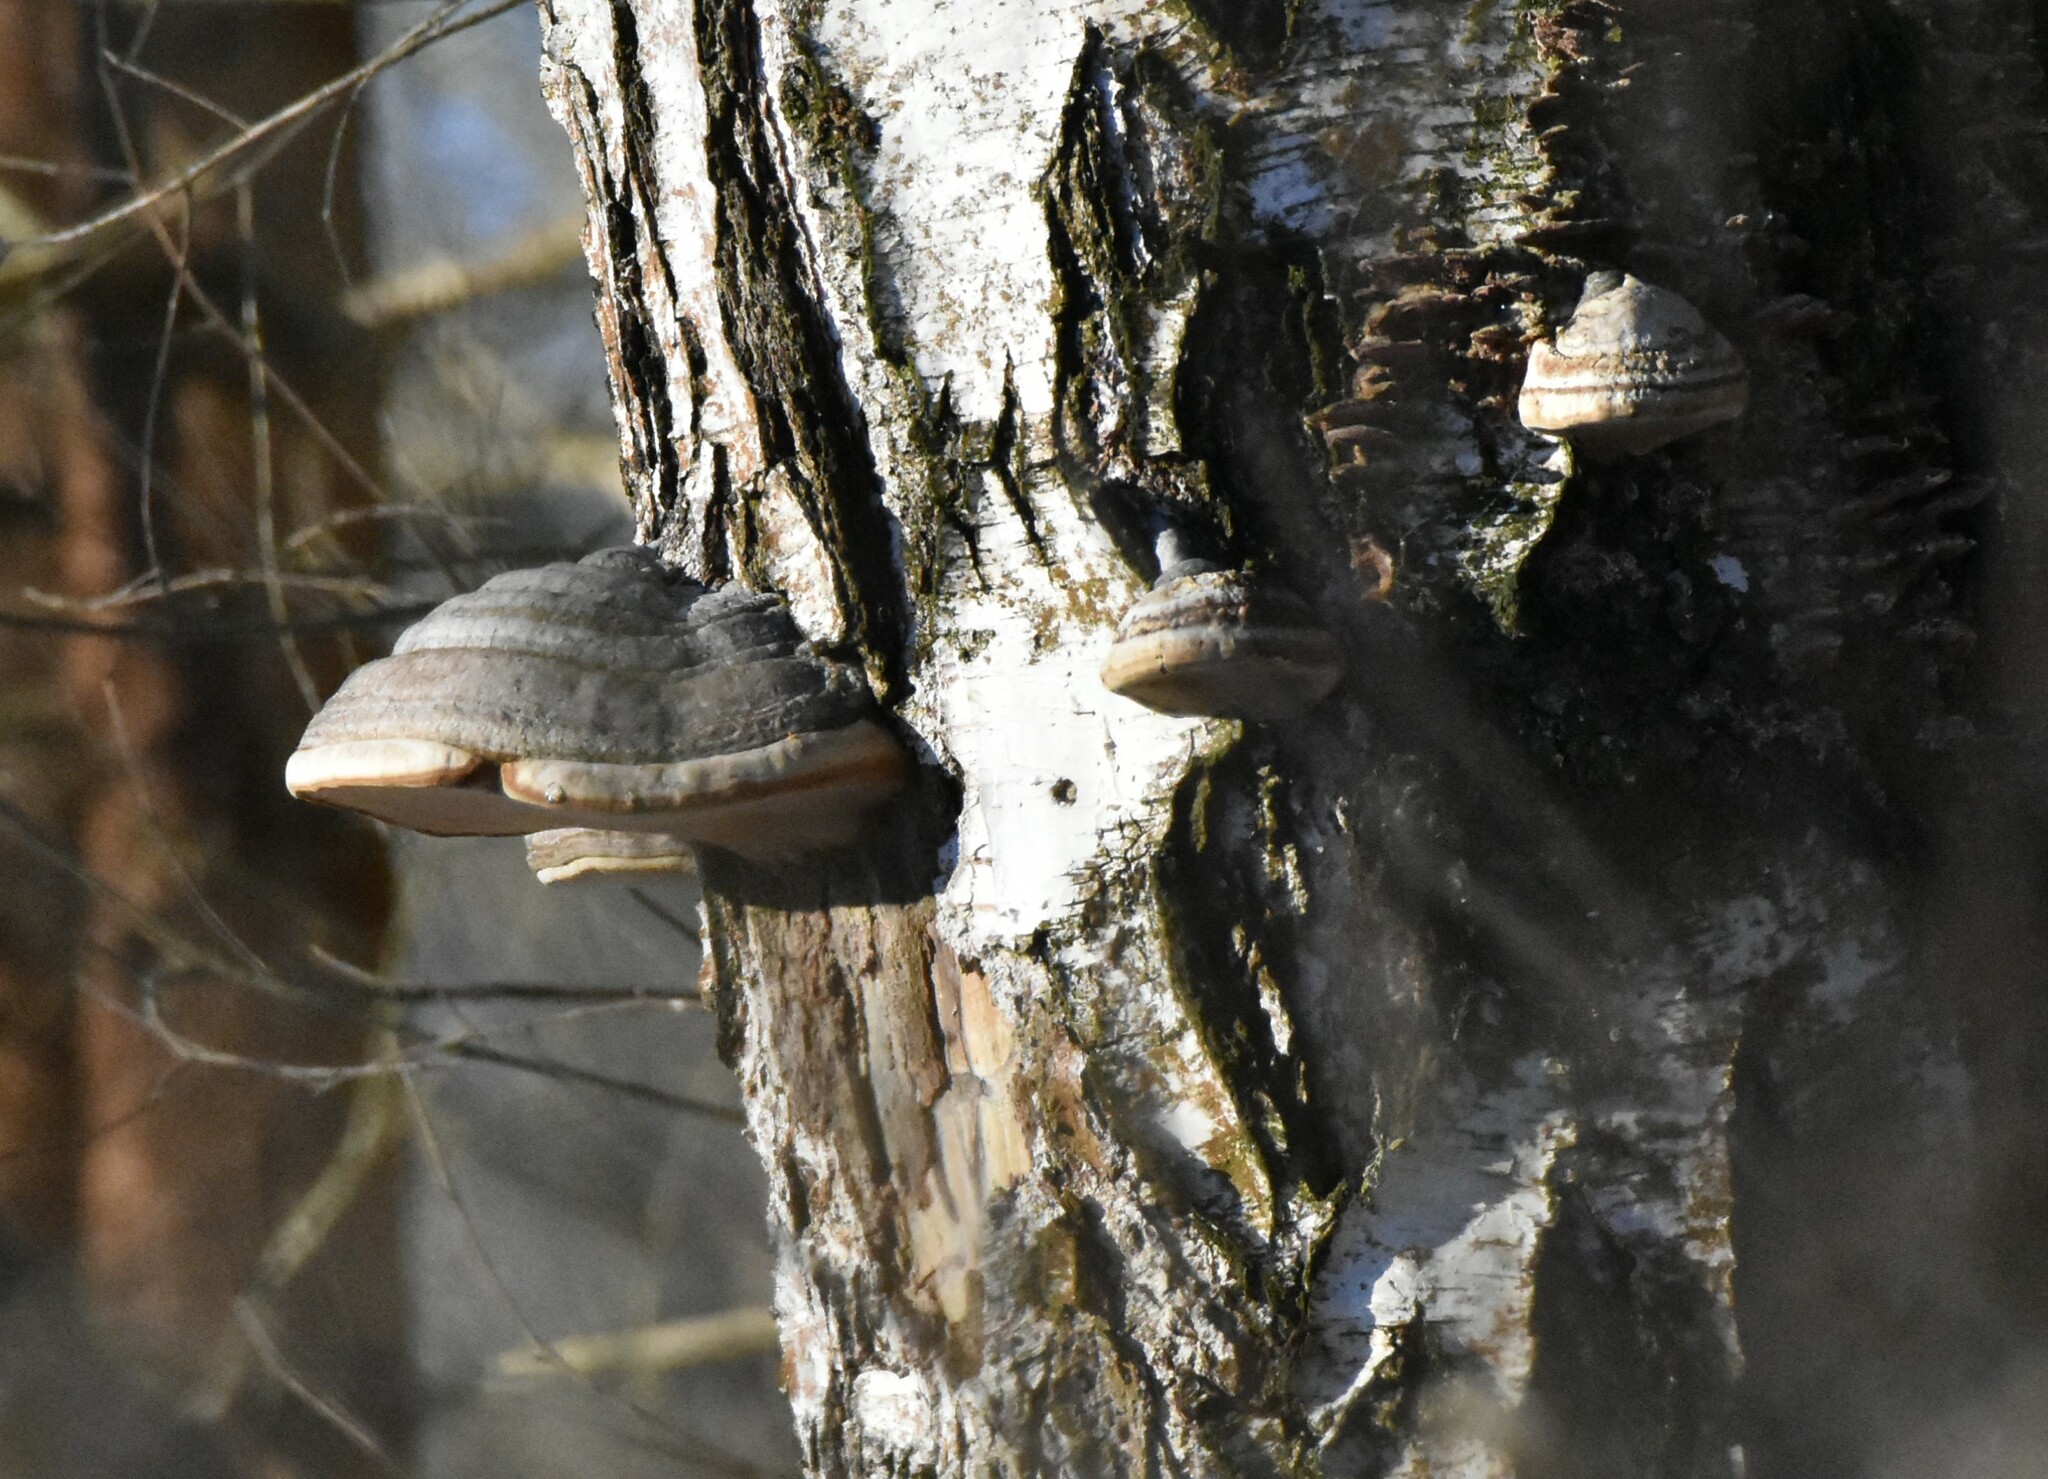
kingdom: Fungi
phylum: Basidiomycota
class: Agaricomycetes
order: Polyporales
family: Polyporaceae
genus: Fomes
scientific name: Fomes fomentarius
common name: Hoof fungus
